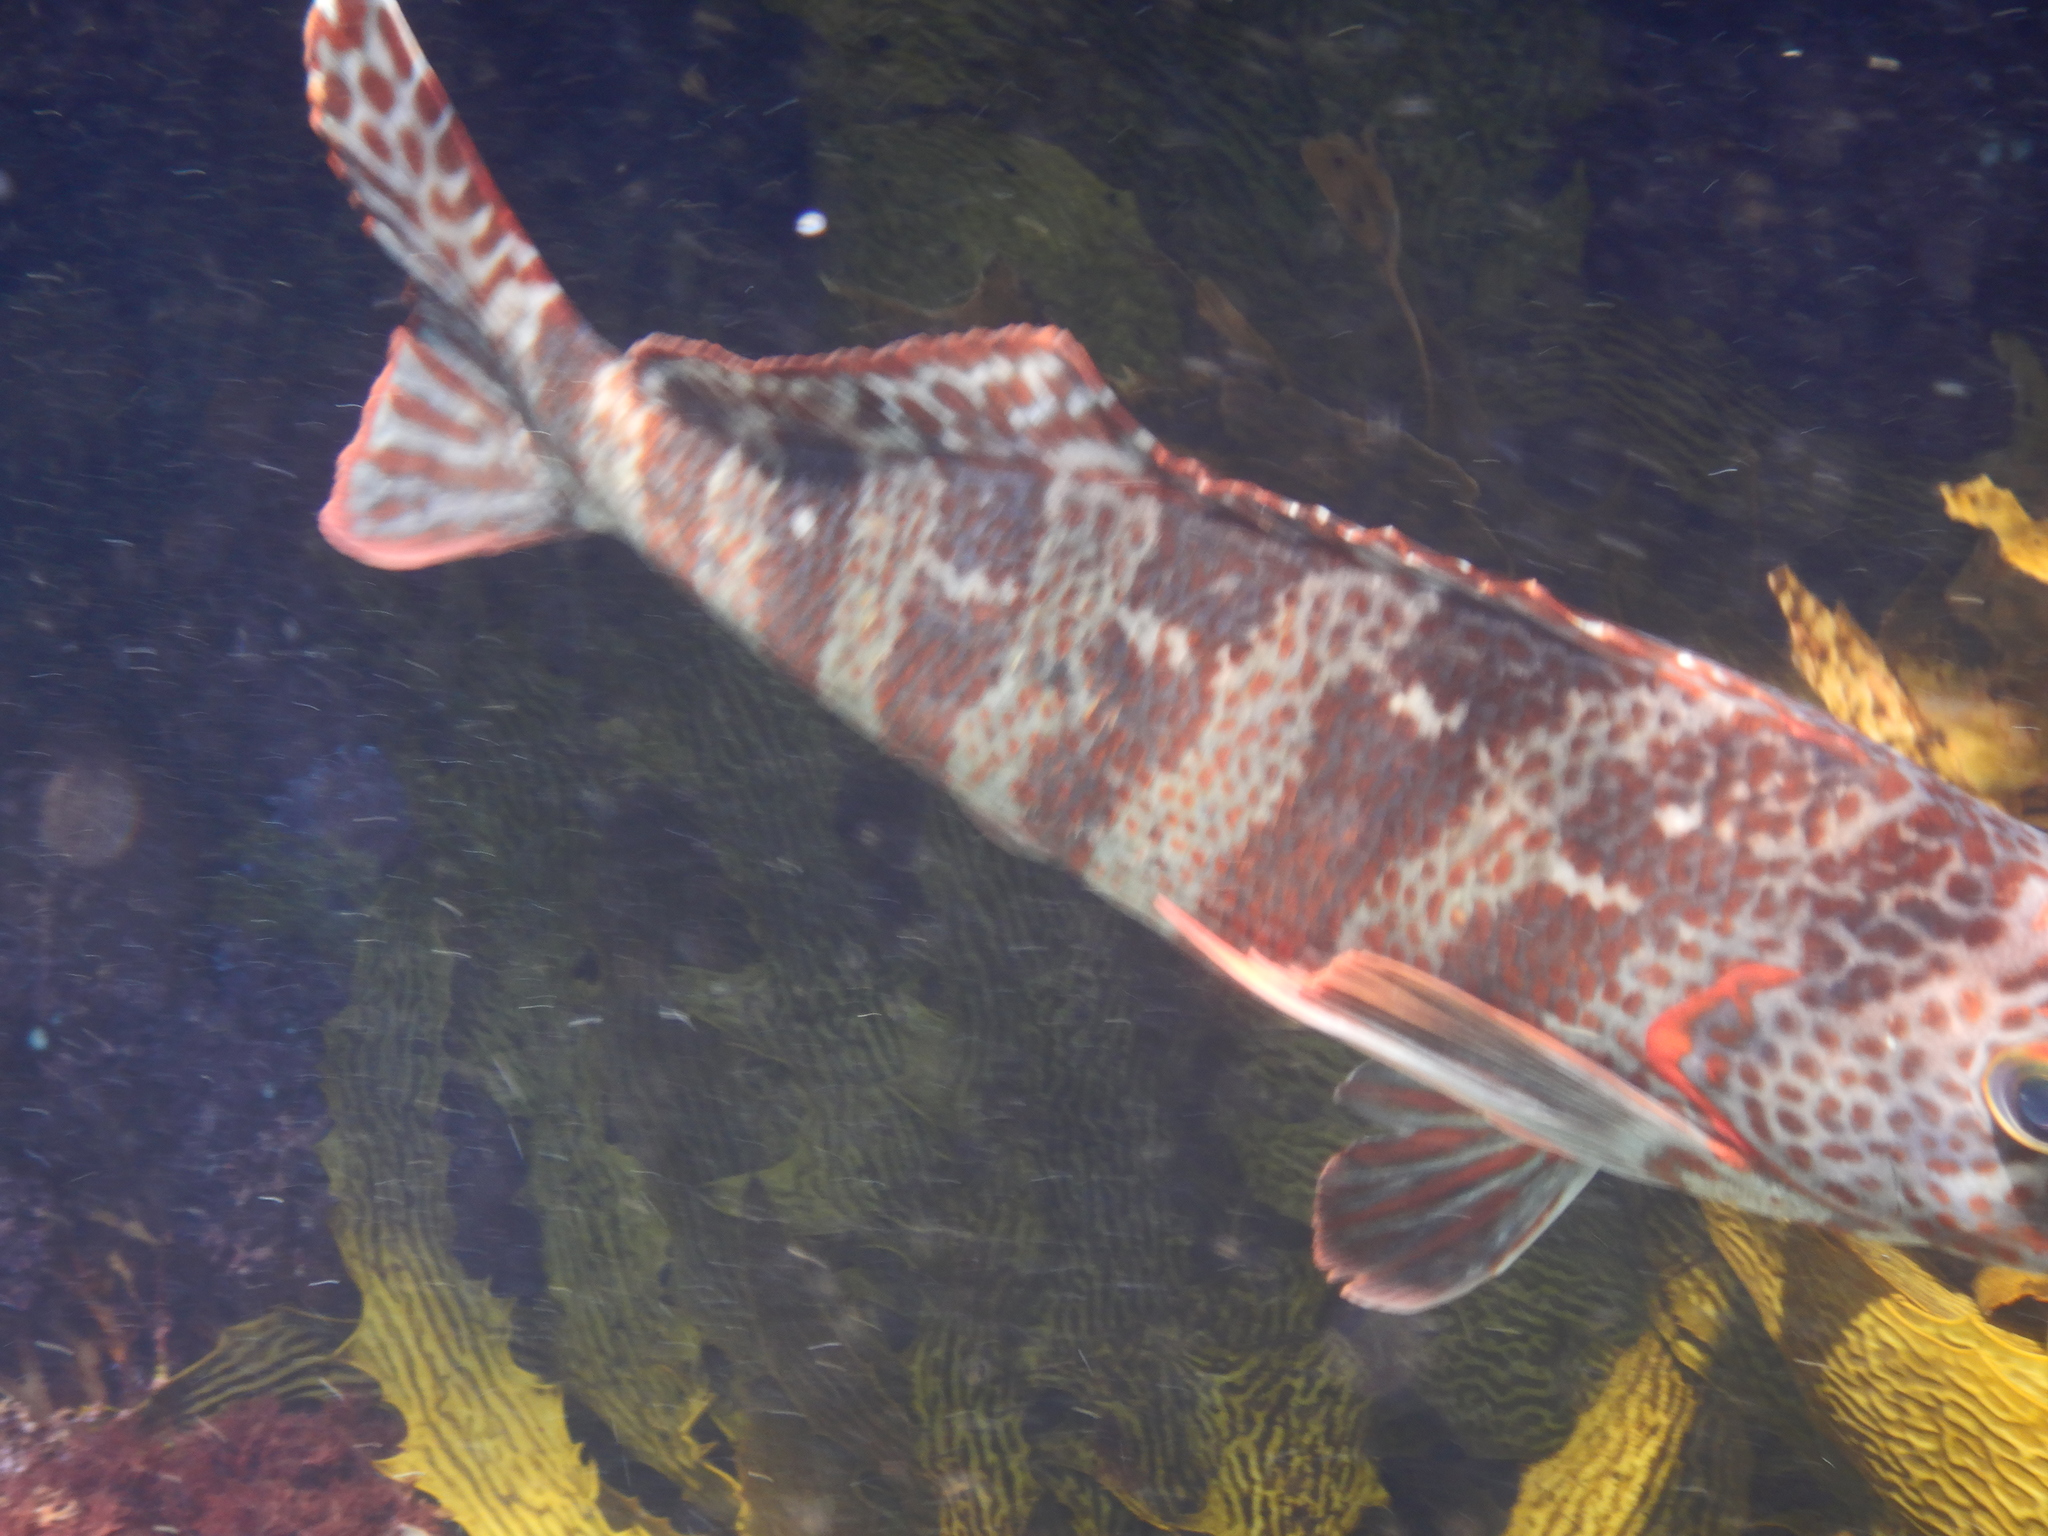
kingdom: Animalia
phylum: Chordata
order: Perciformes
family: Cheilodactylidae
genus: Cheilodactylus
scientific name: Cheilodactylus rubrolabiatus
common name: Redlip morwong
